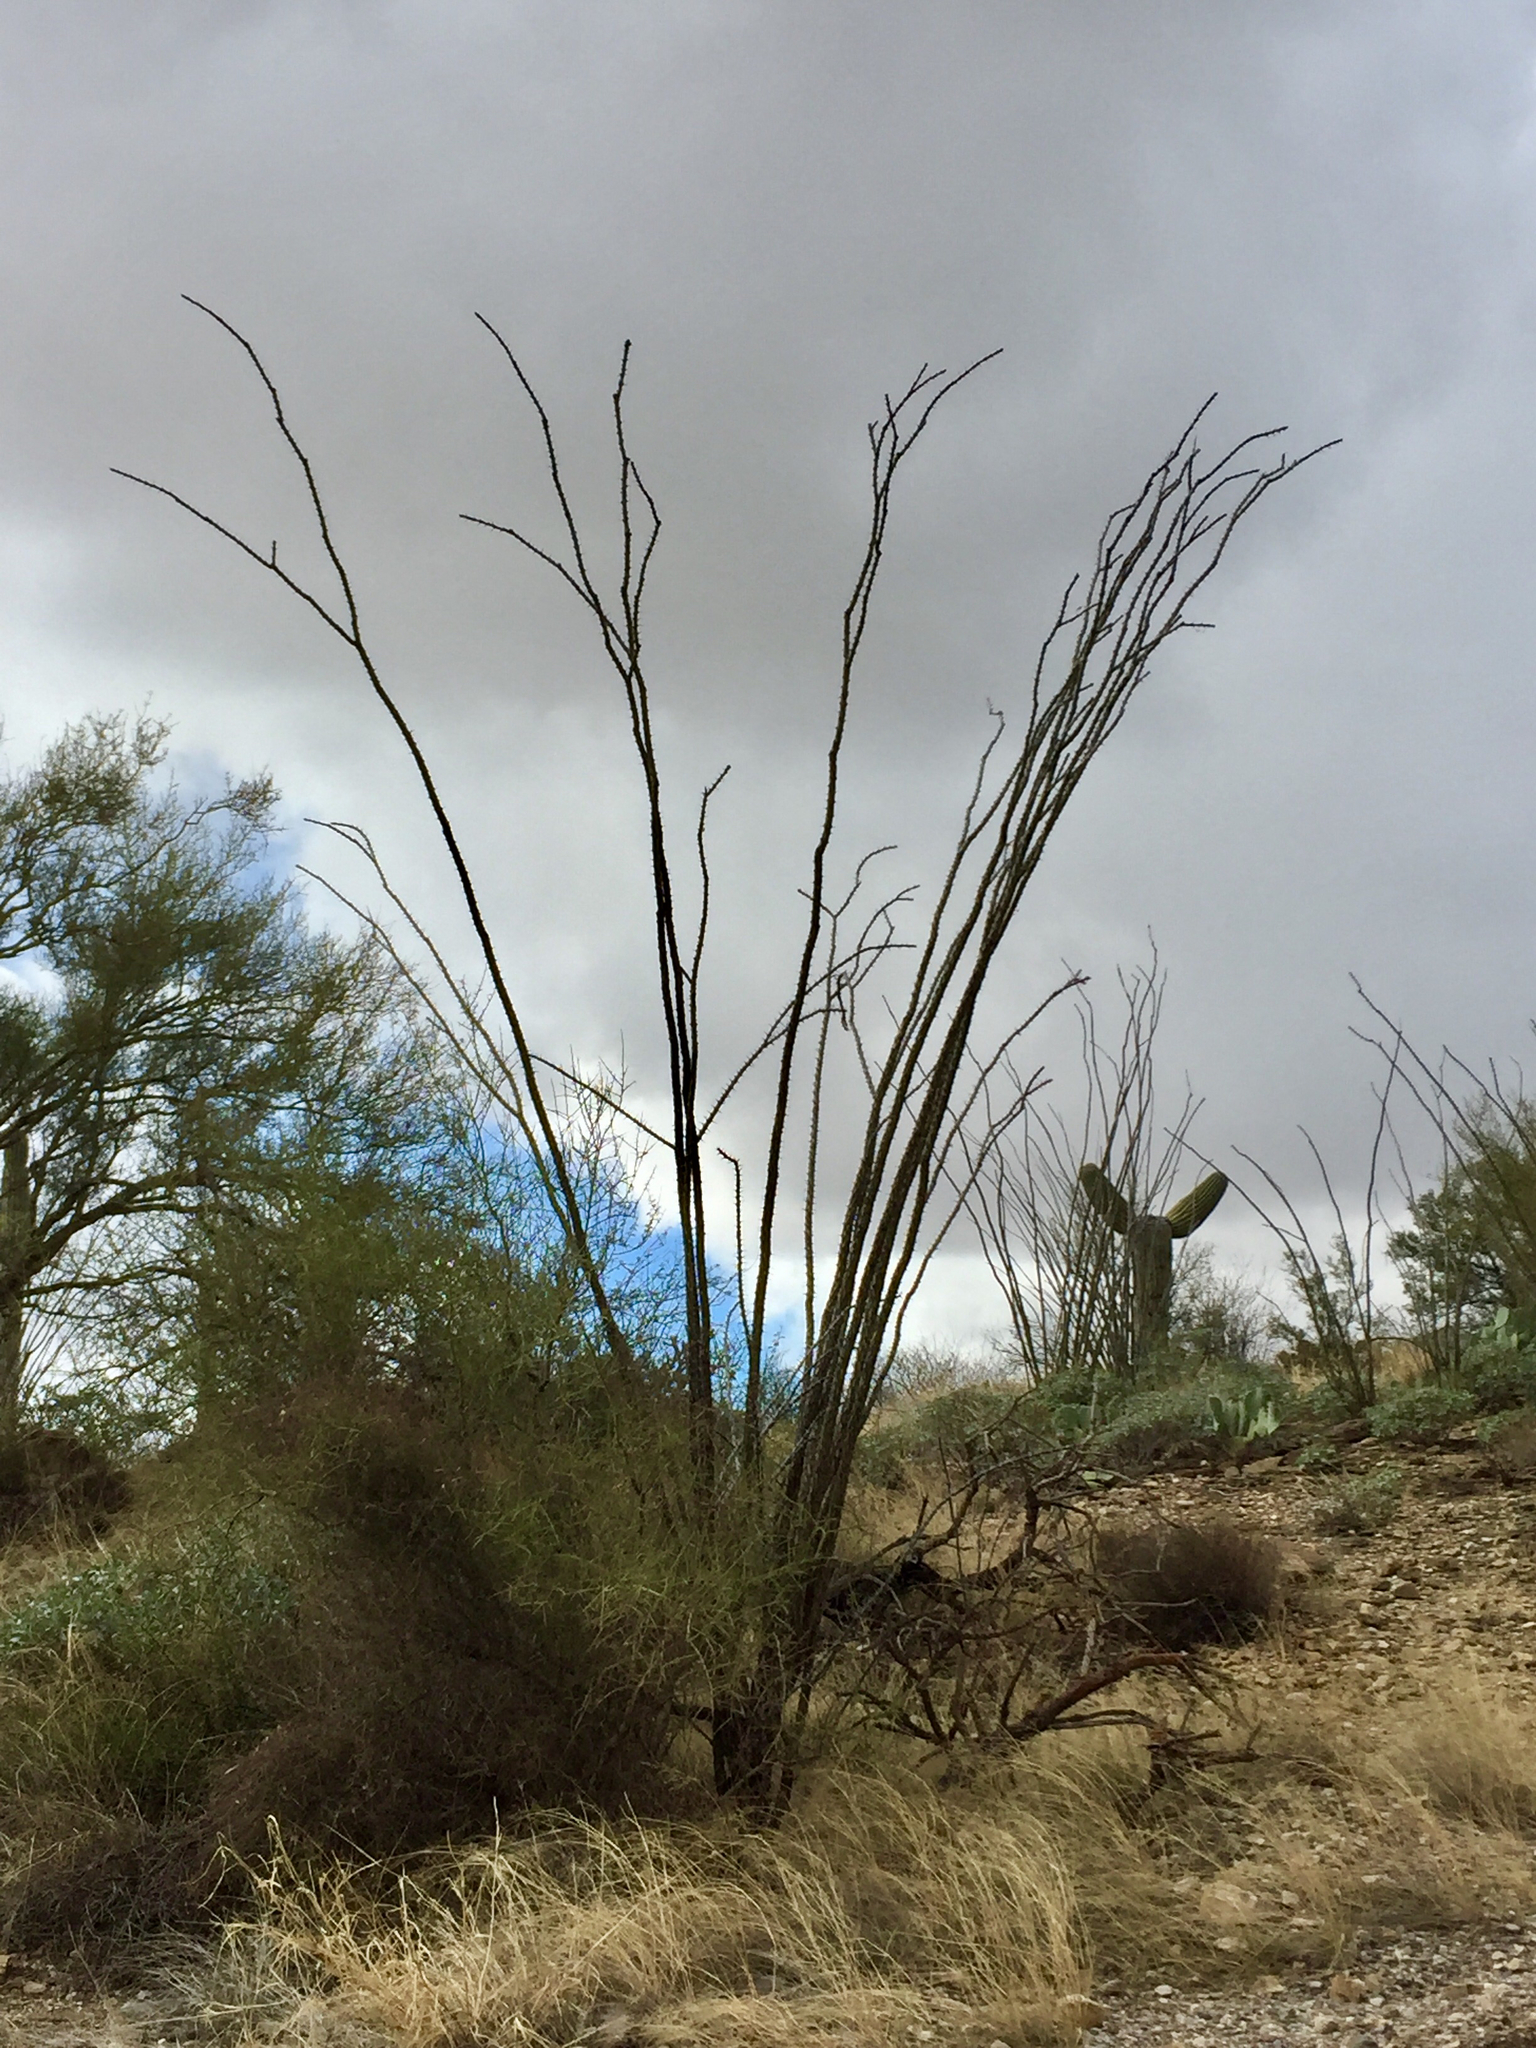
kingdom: Plantae
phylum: Tracheophyta
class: Magnoliopsida
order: Ericales
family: Fouquieriaceae
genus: Fouquieria
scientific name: Fouquieria splendens
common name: Vine-cactus
